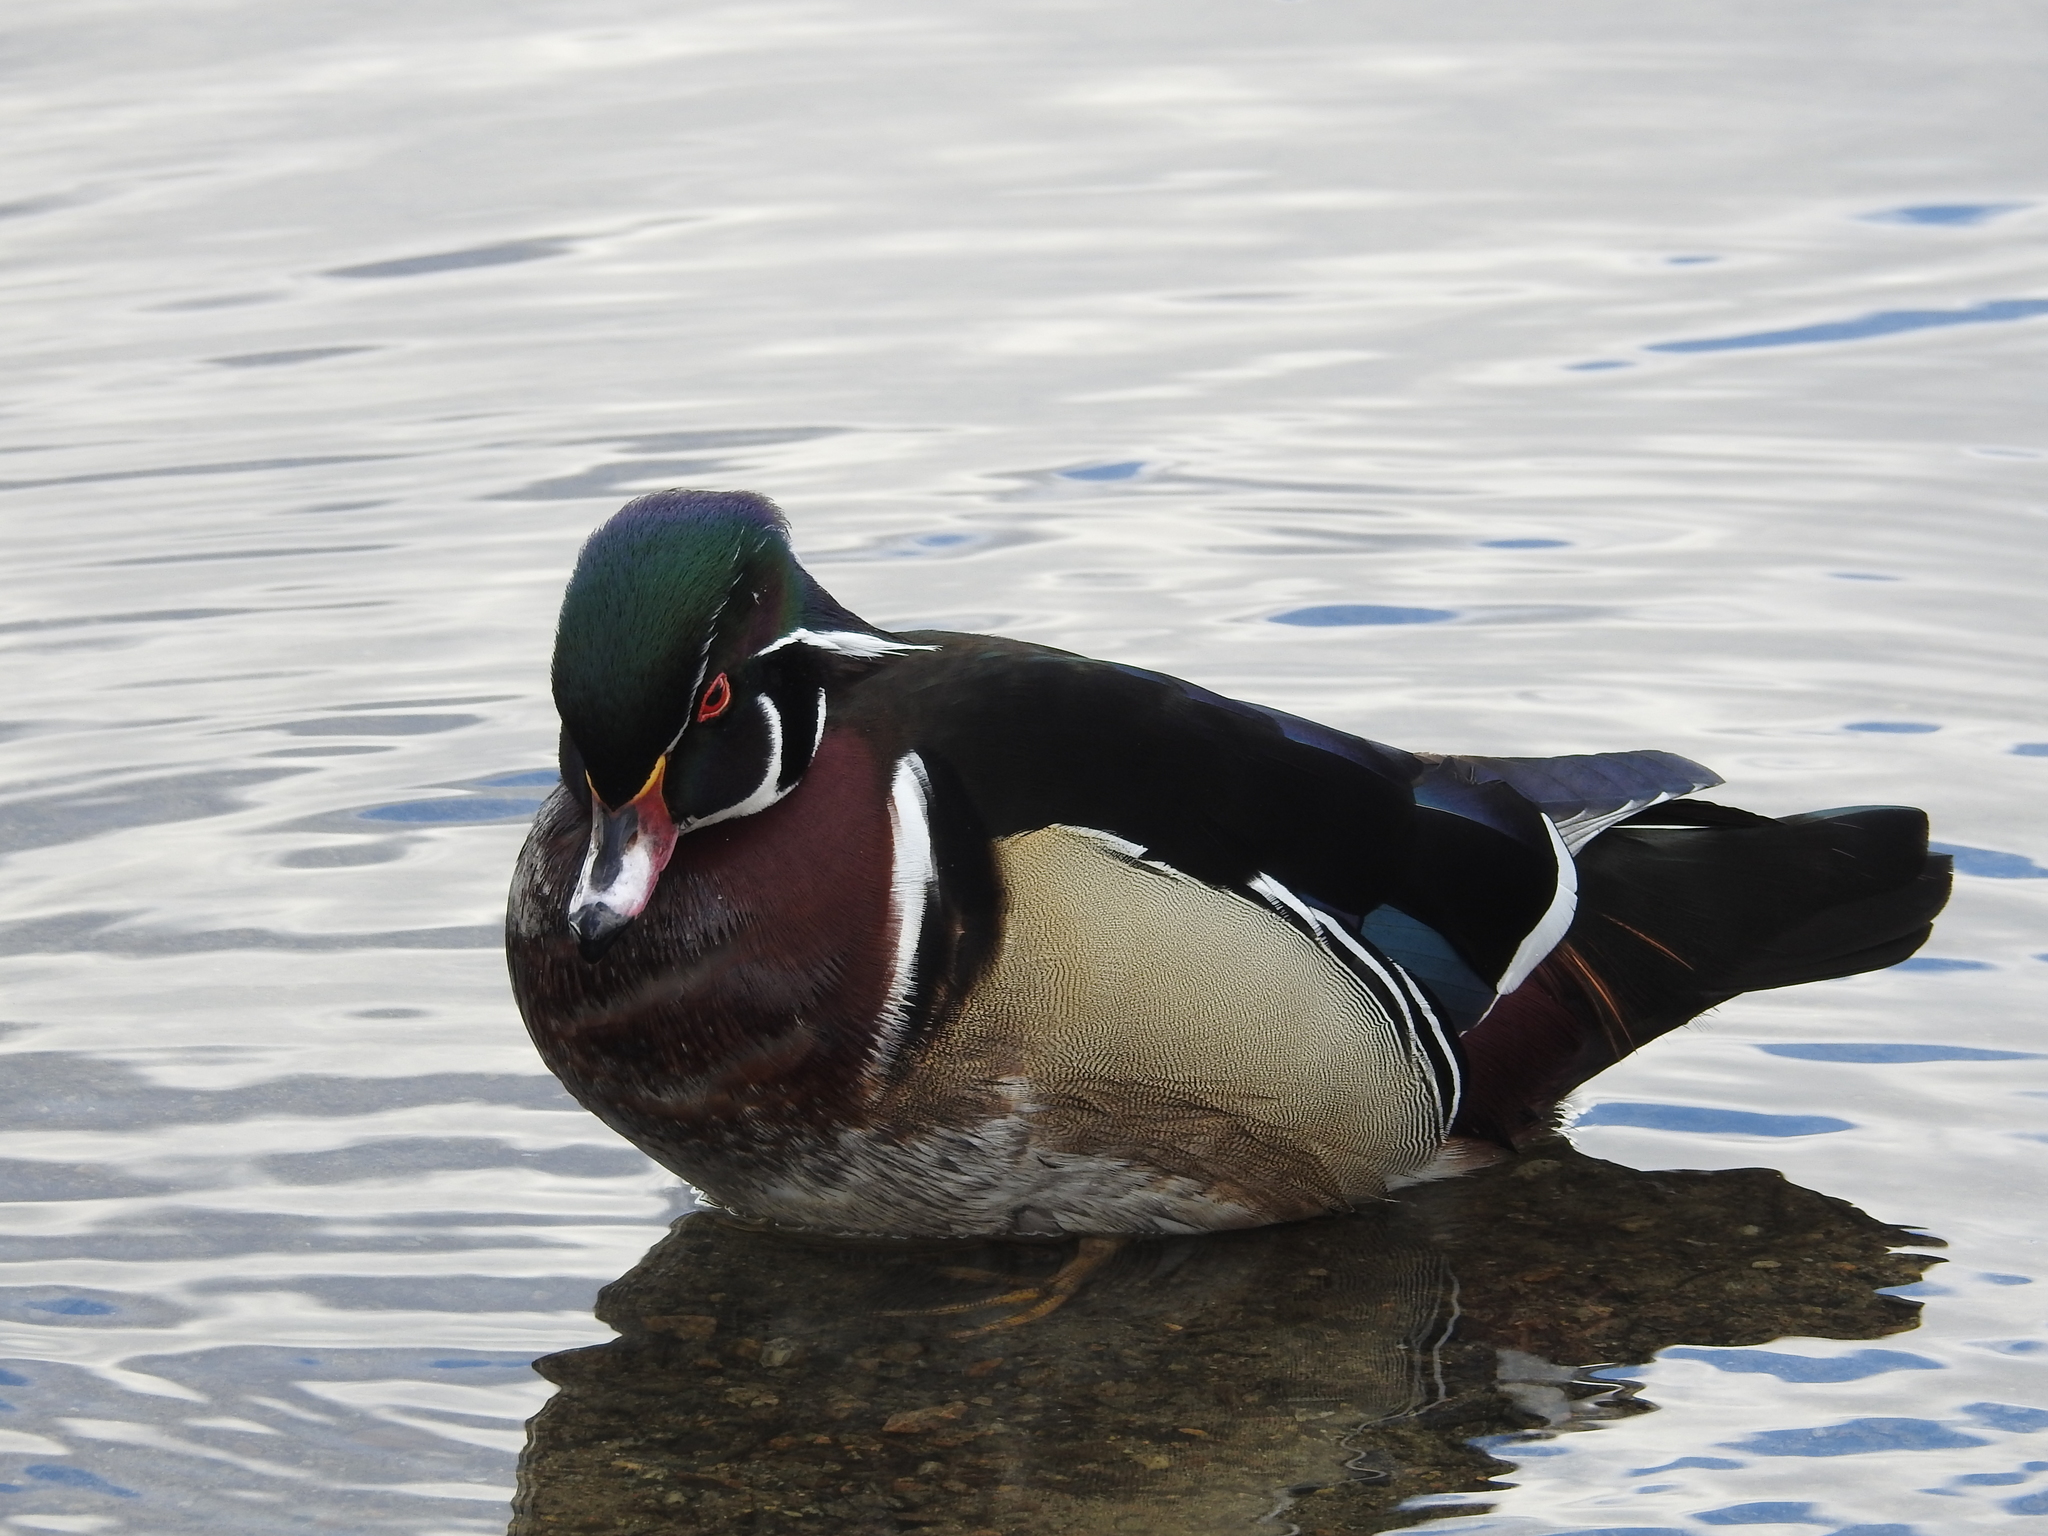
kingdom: Animalia
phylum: Chordata
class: Aves
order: Anseriformes
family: Anatidae
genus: Aix
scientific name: Aix sponsa
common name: Wood duck
